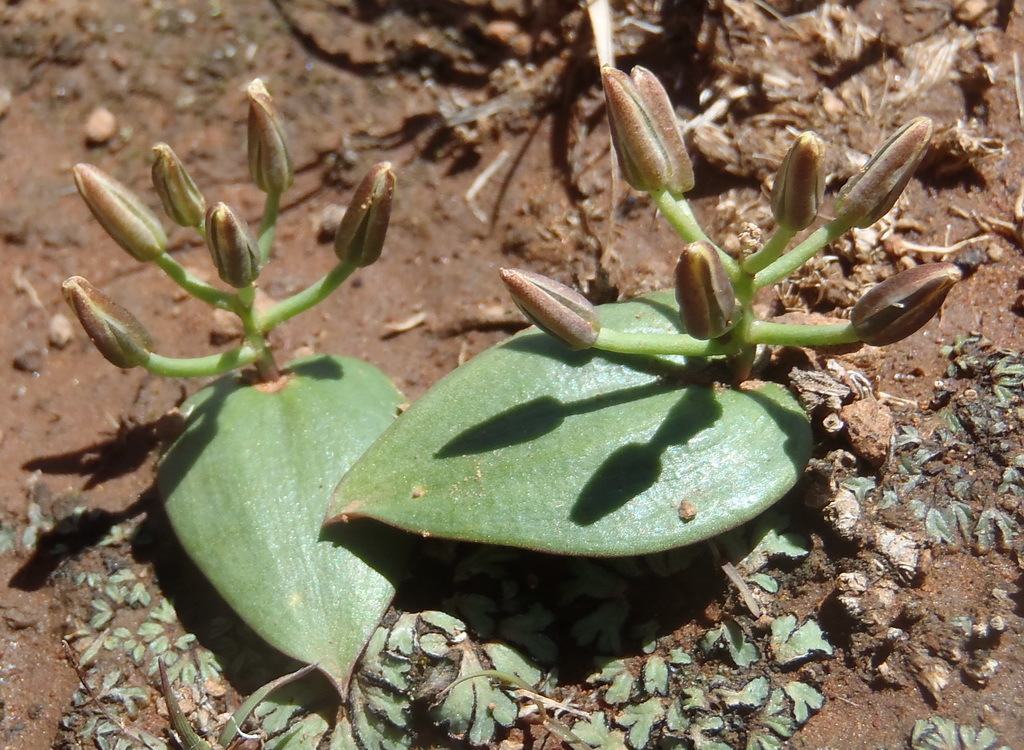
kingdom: Plantae
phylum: Tracheophyta
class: Liliopsida
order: Asparagales
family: Asparagaceae
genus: Eriospermum
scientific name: Eriospermum corymbosum
